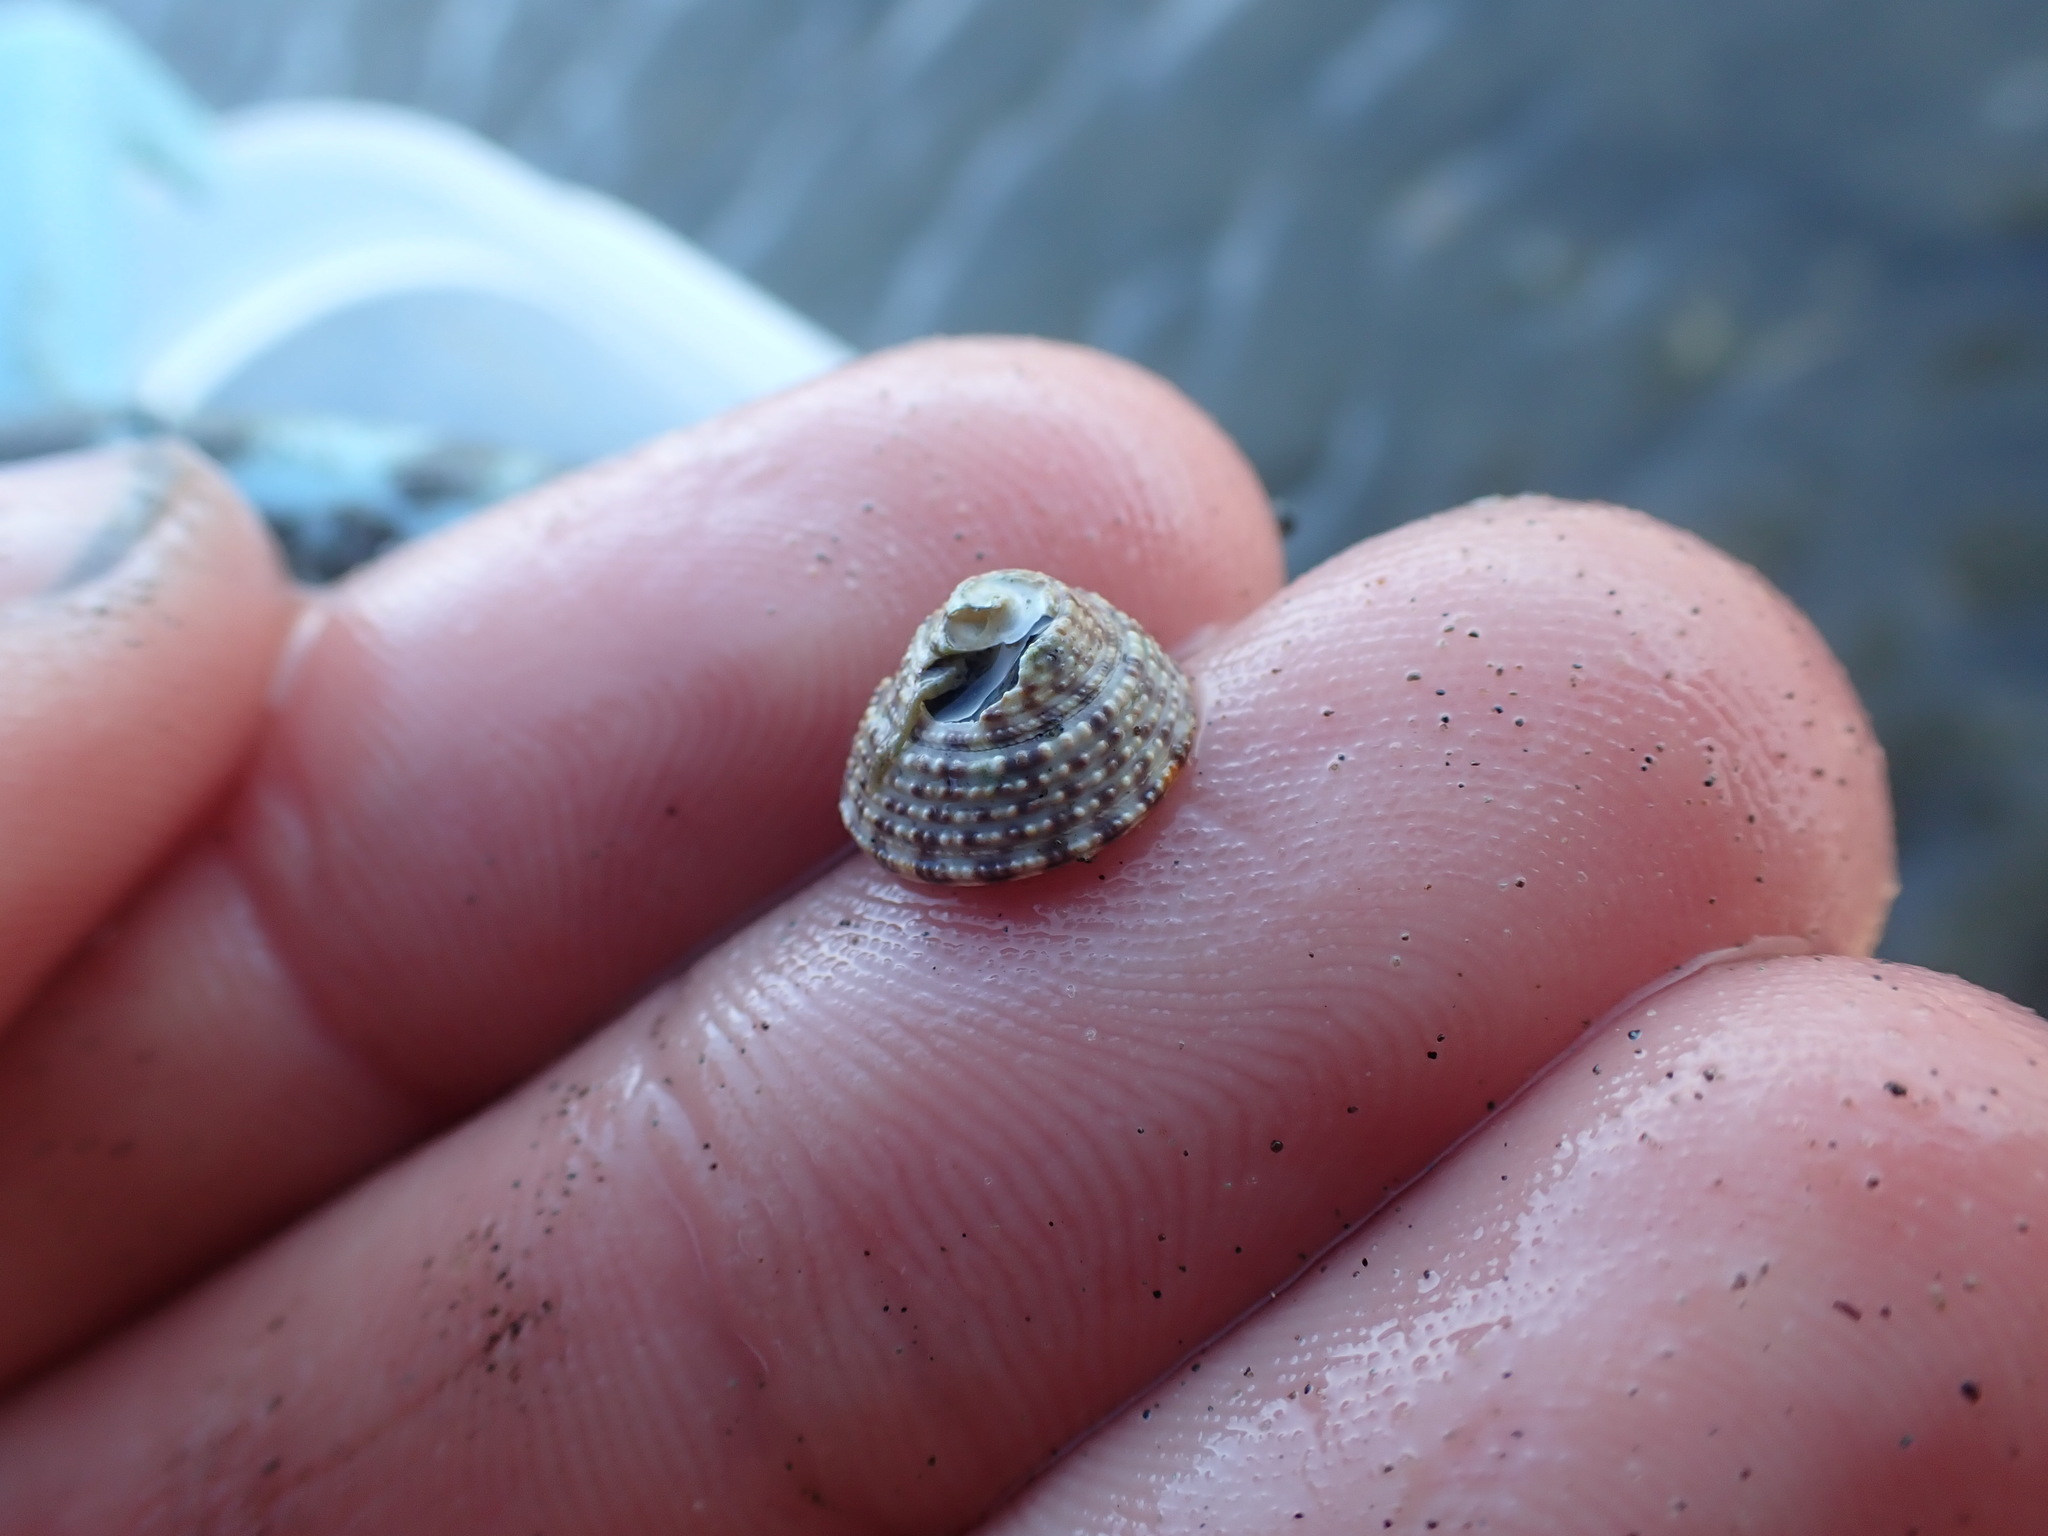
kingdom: Animalia
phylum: Mollusca
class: Gastropoda
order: Trochida
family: Trochidae
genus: Coelotrochus
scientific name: Coelotrochus tiaratus
